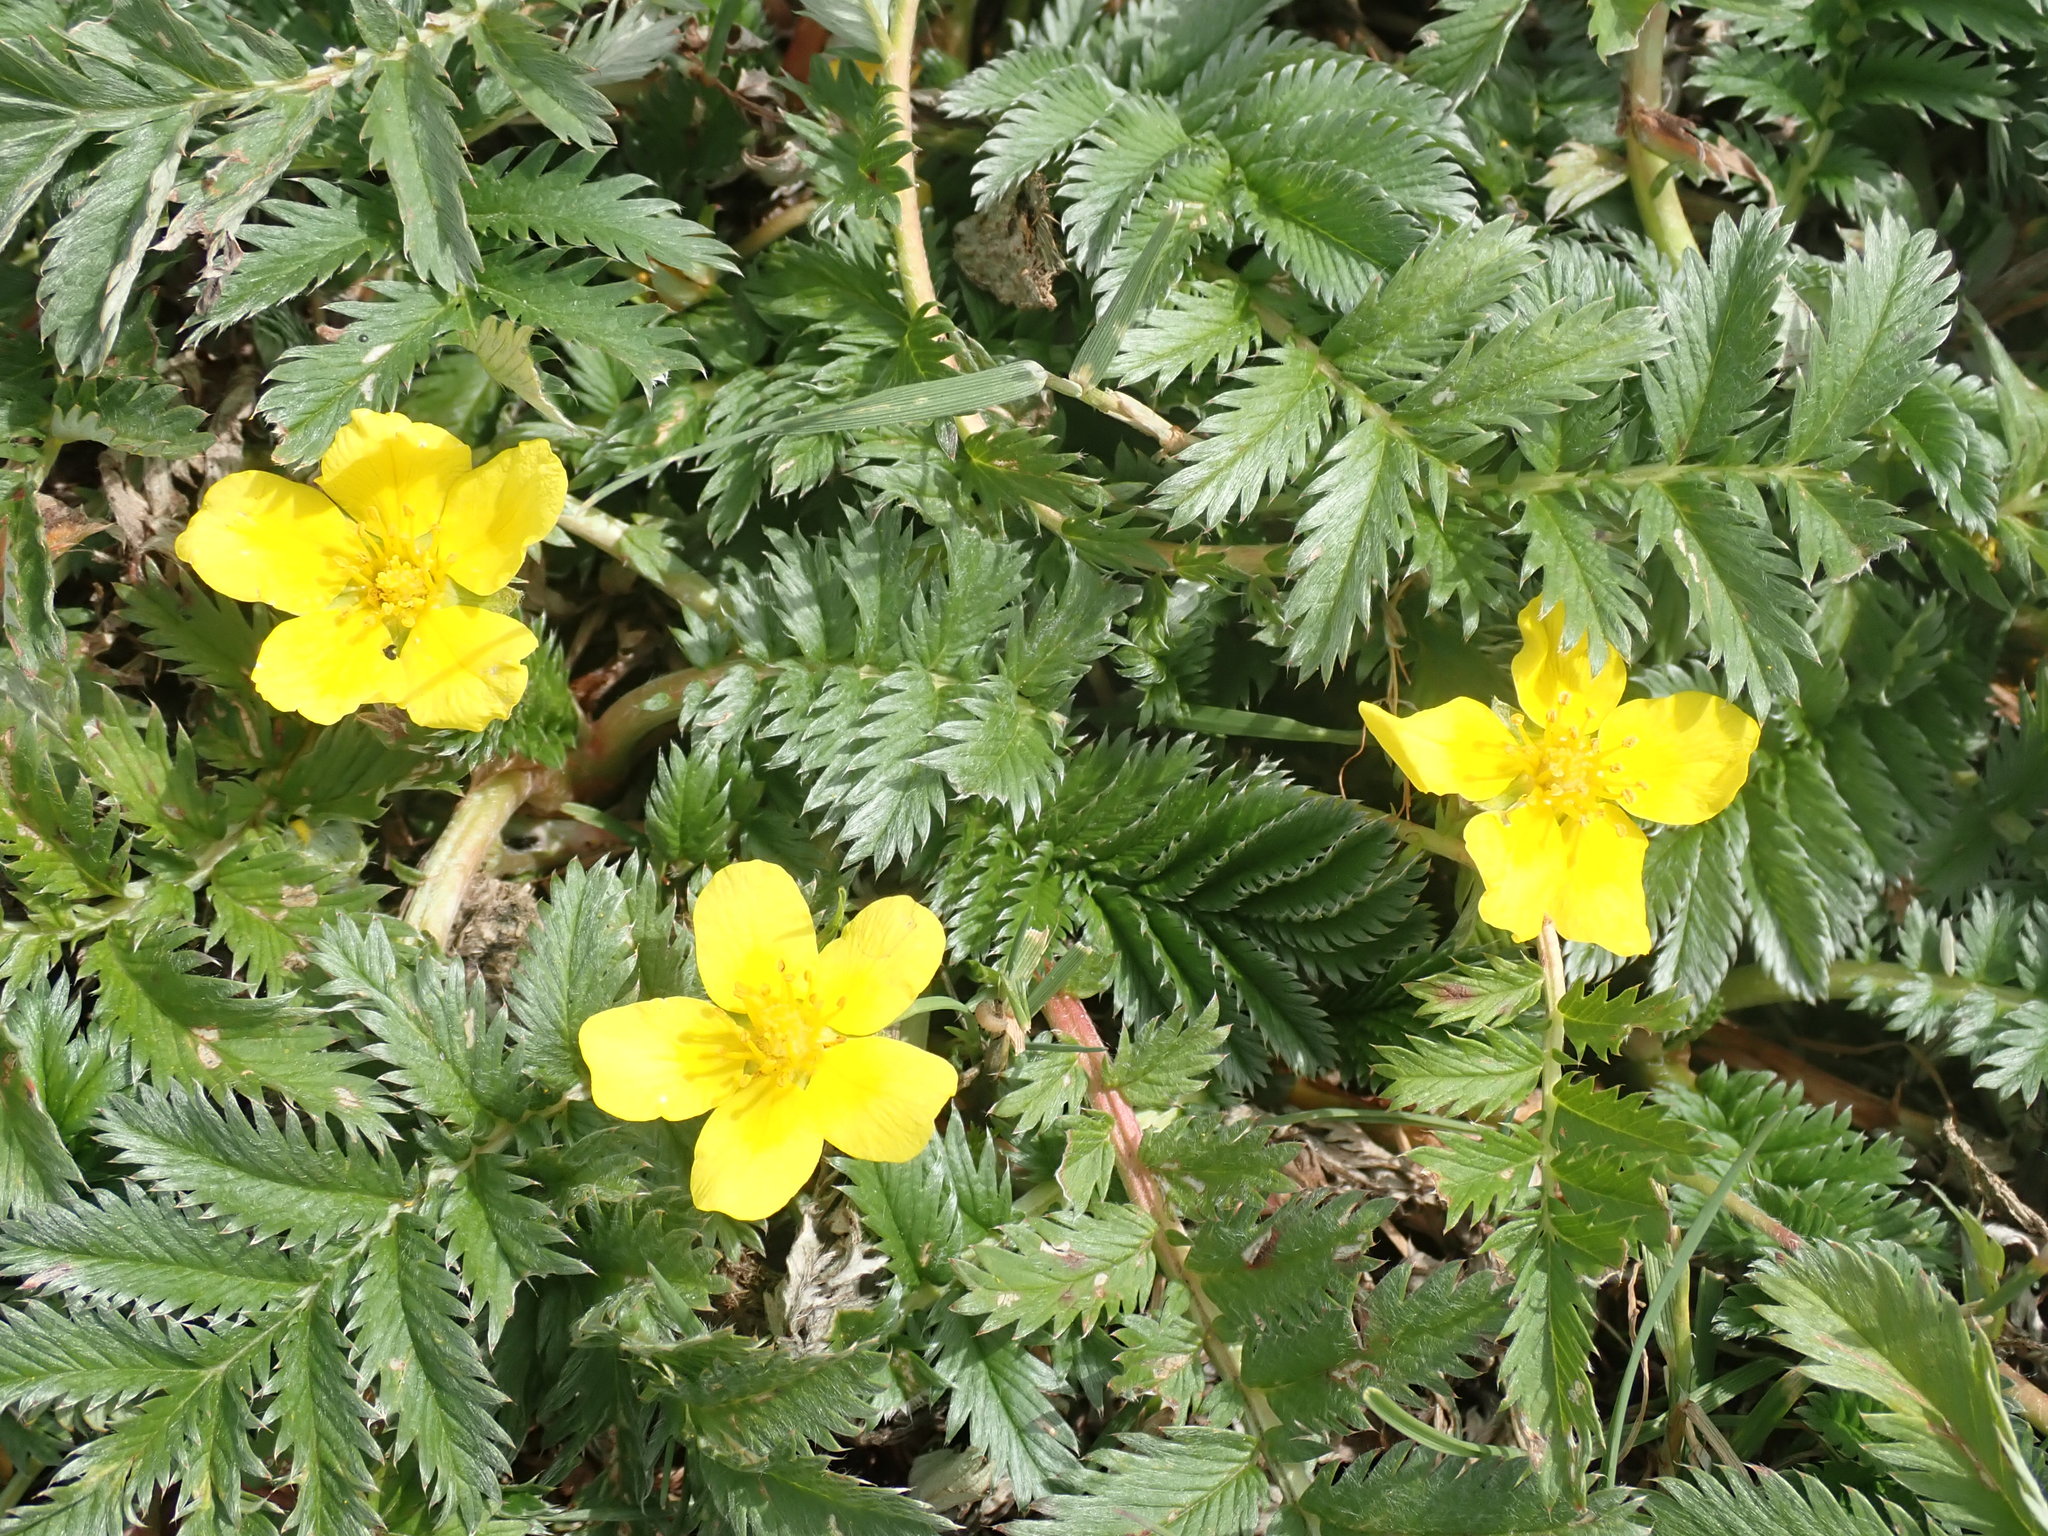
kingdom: Plantae
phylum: Tracheophyta
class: Magnoliopsida
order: Rosales
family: Rosaceae
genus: Argentina
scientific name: Argentina anserina
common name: Common silverweed
